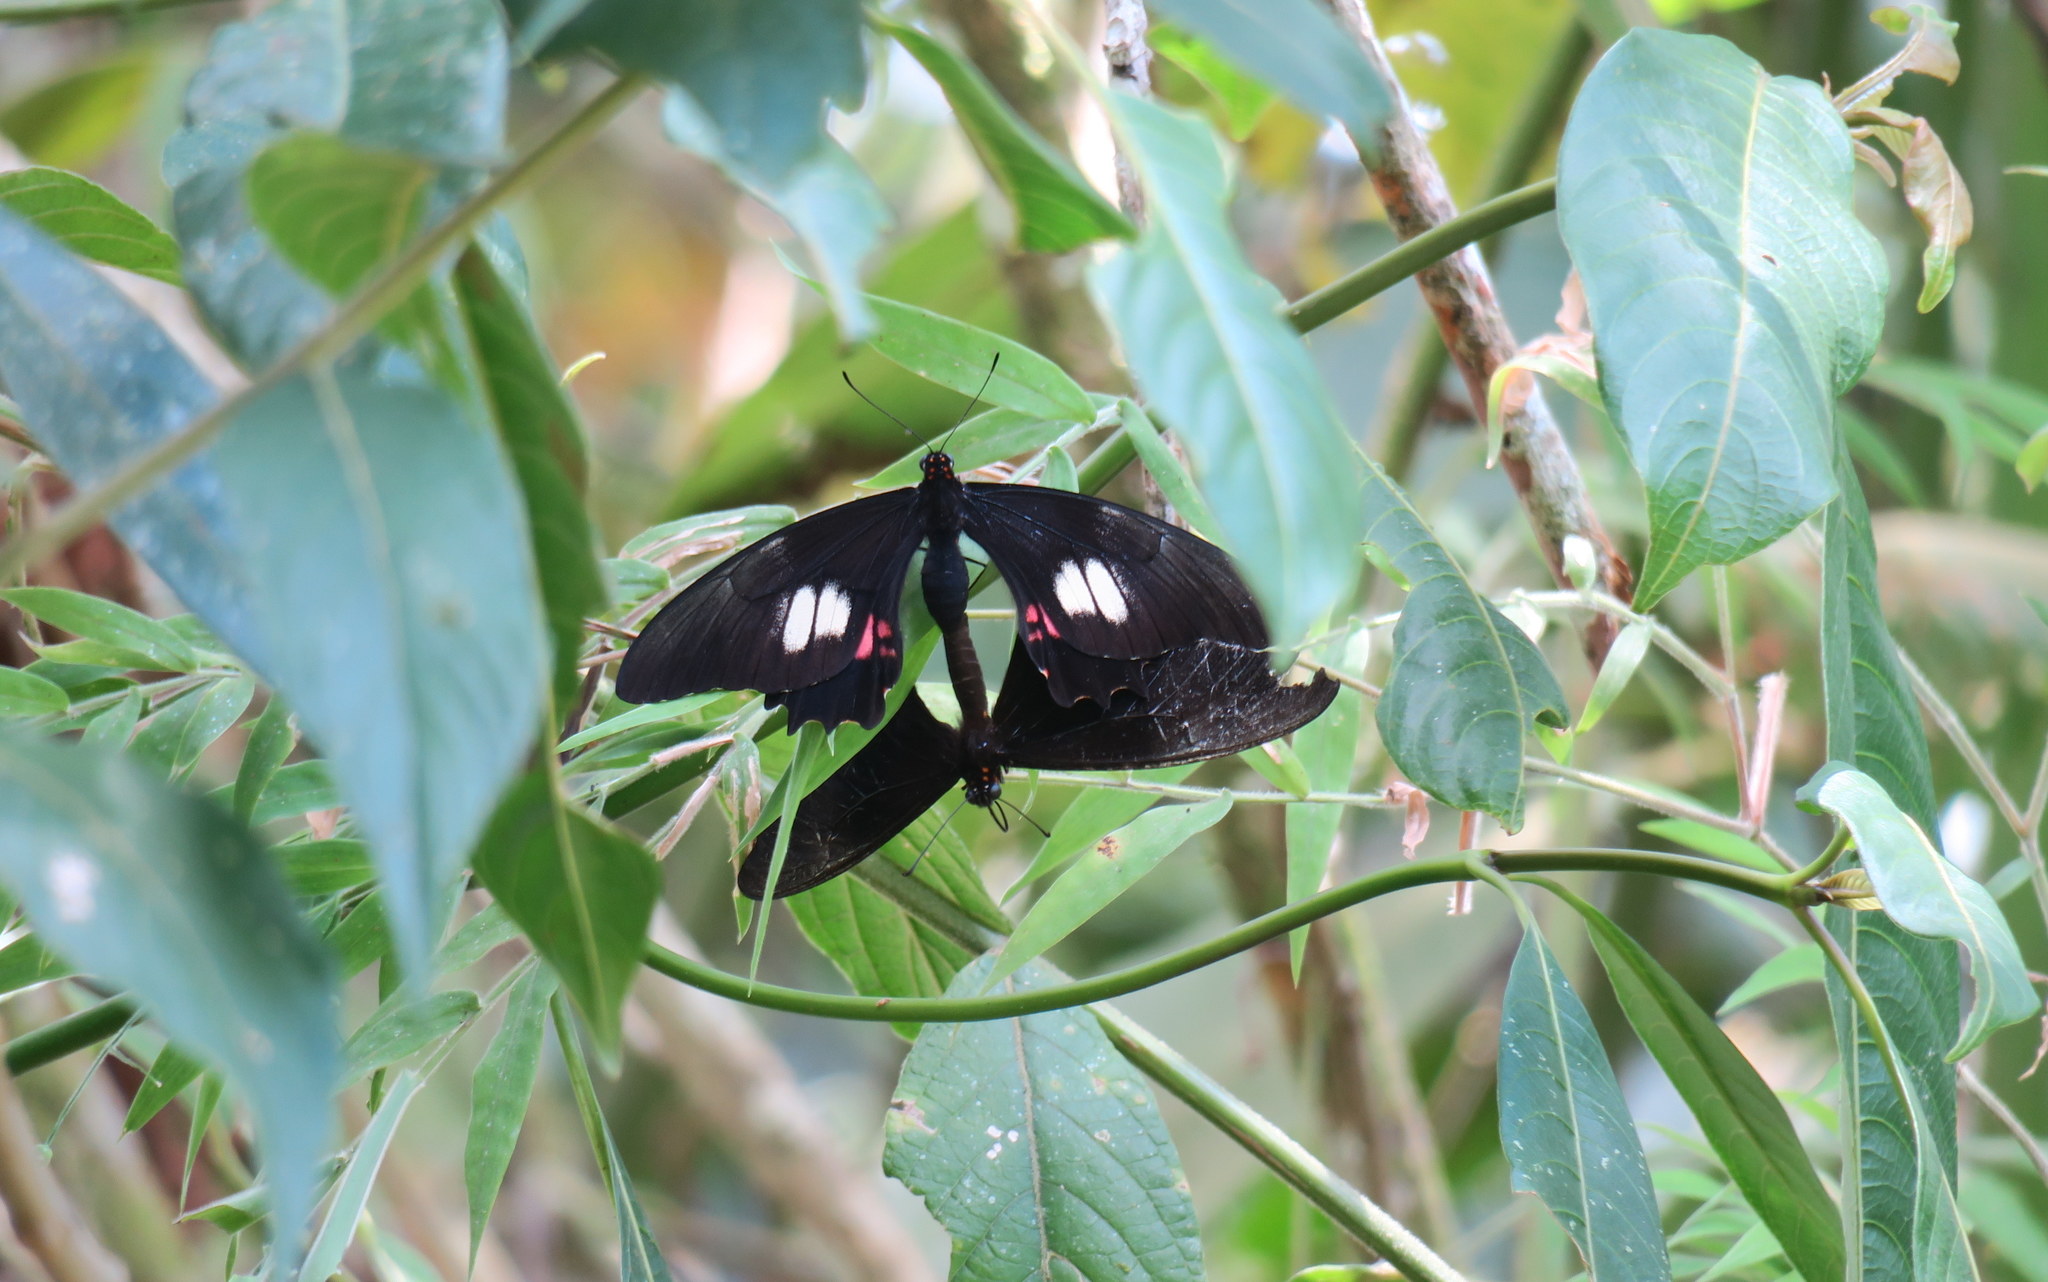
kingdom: Animalia
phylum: Arthropoda
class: Insecta
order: Lepidoptera
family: Papilionidae
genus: Papilio
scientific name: Papilio anchisiades
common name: Idaes swallowtail
